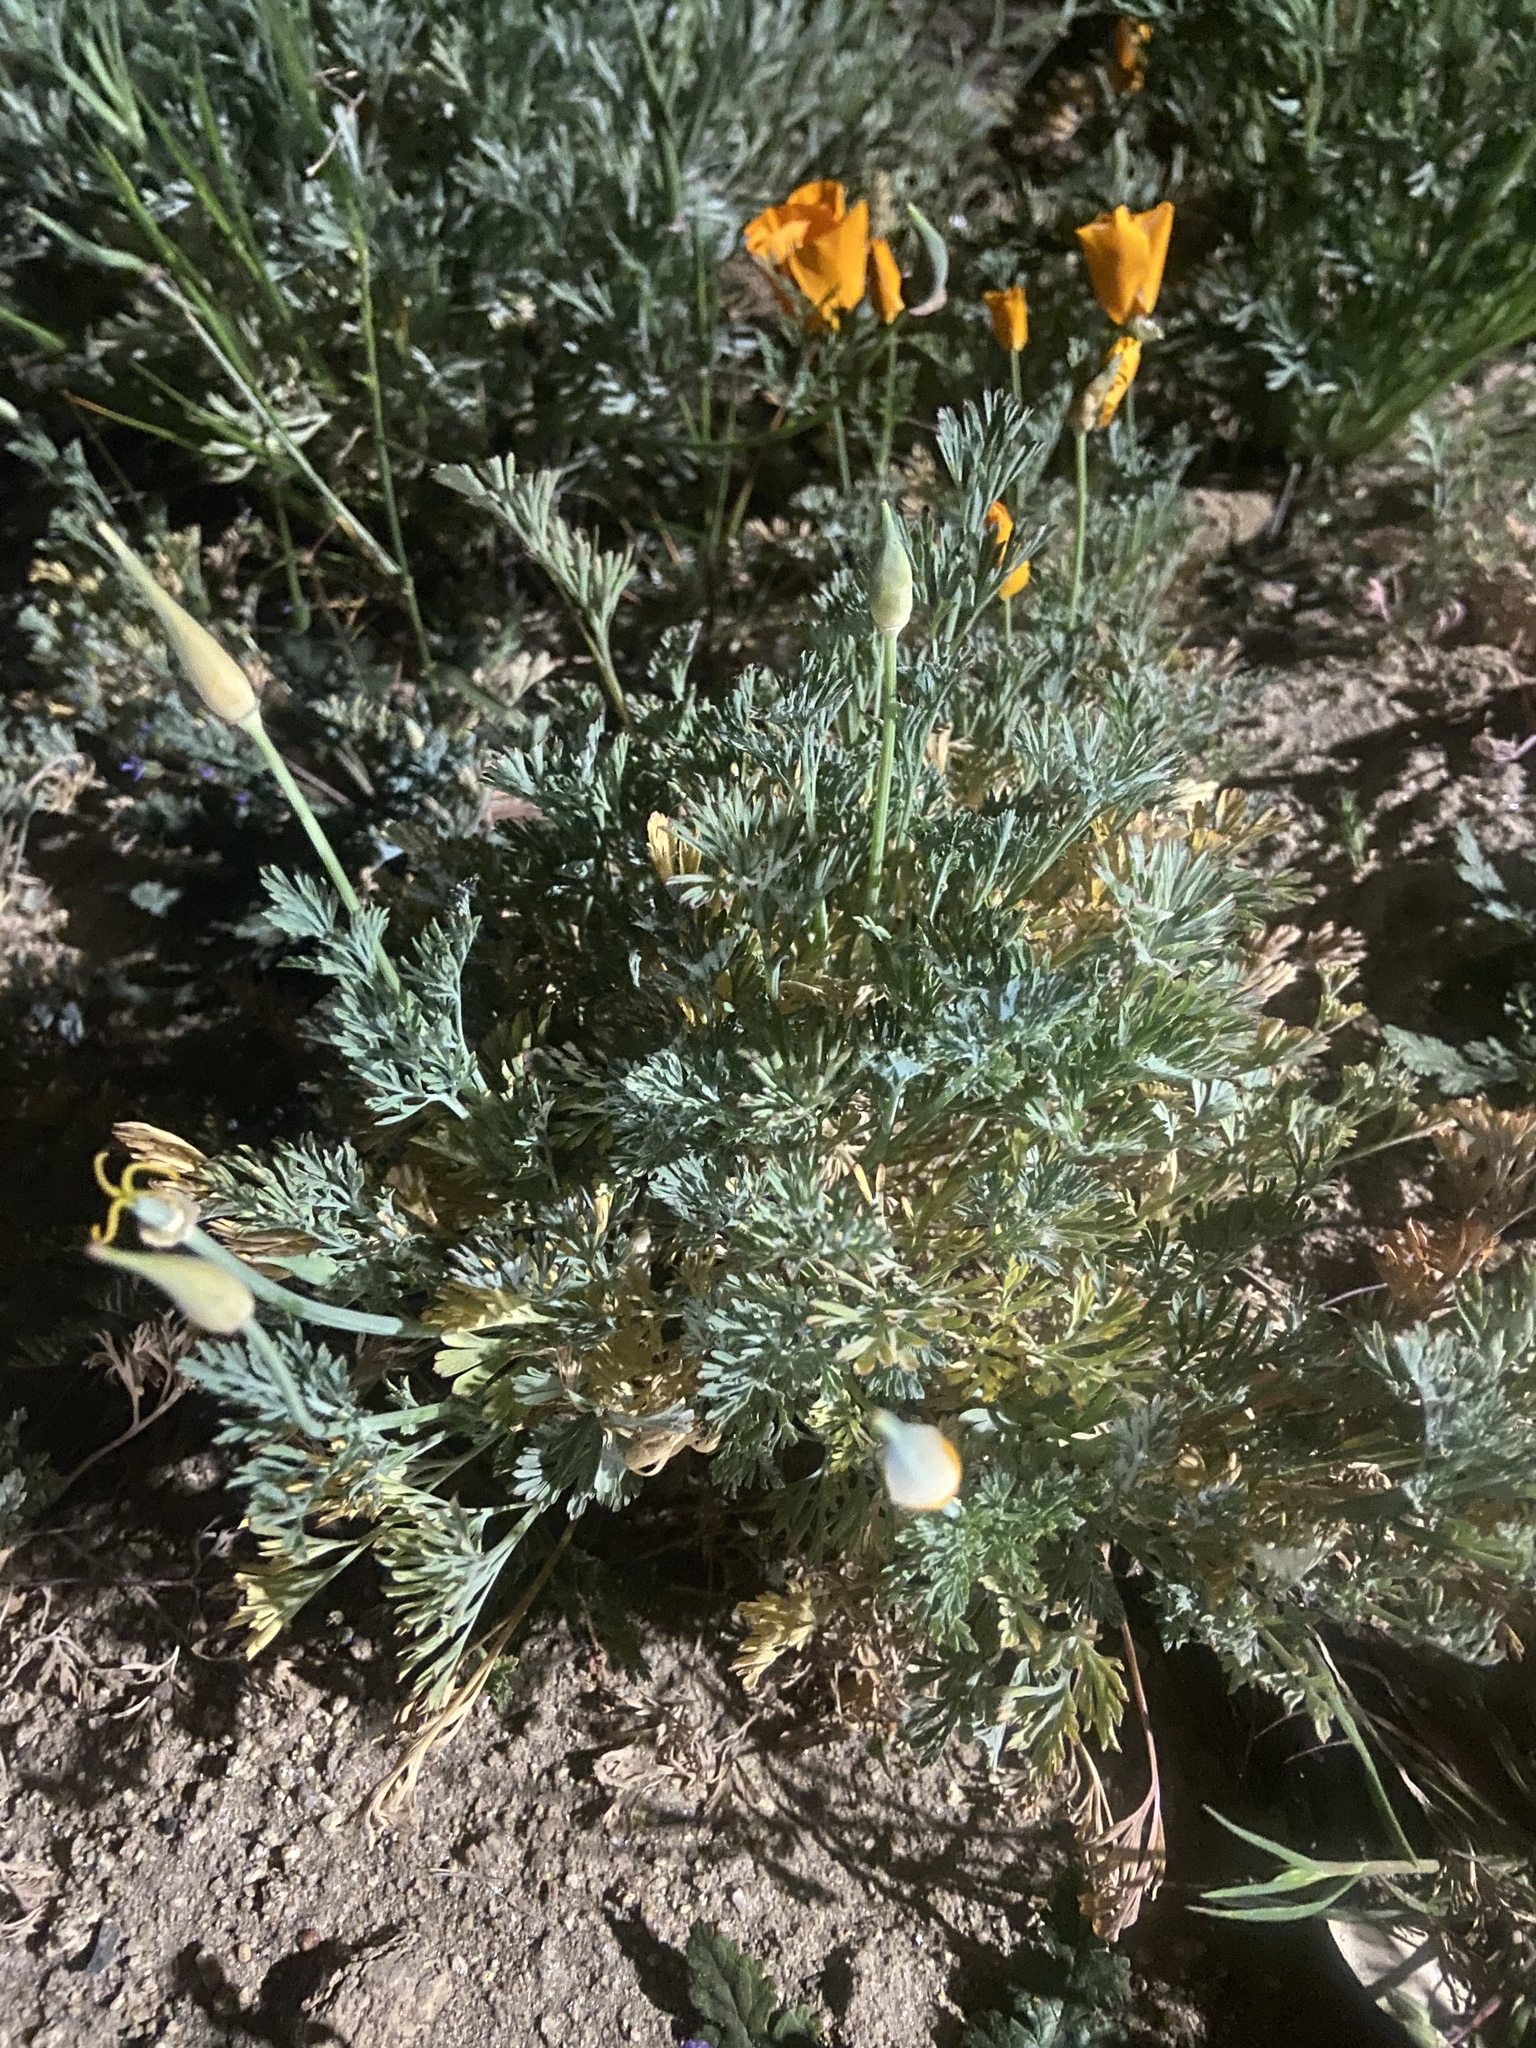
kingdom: Plantae
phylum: Tracheophyta
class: Magnoliopsida
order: Ranunculales
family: Papaveraceae
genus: Eschscholzia
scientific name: Eschscholzia californica
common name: California poppy
